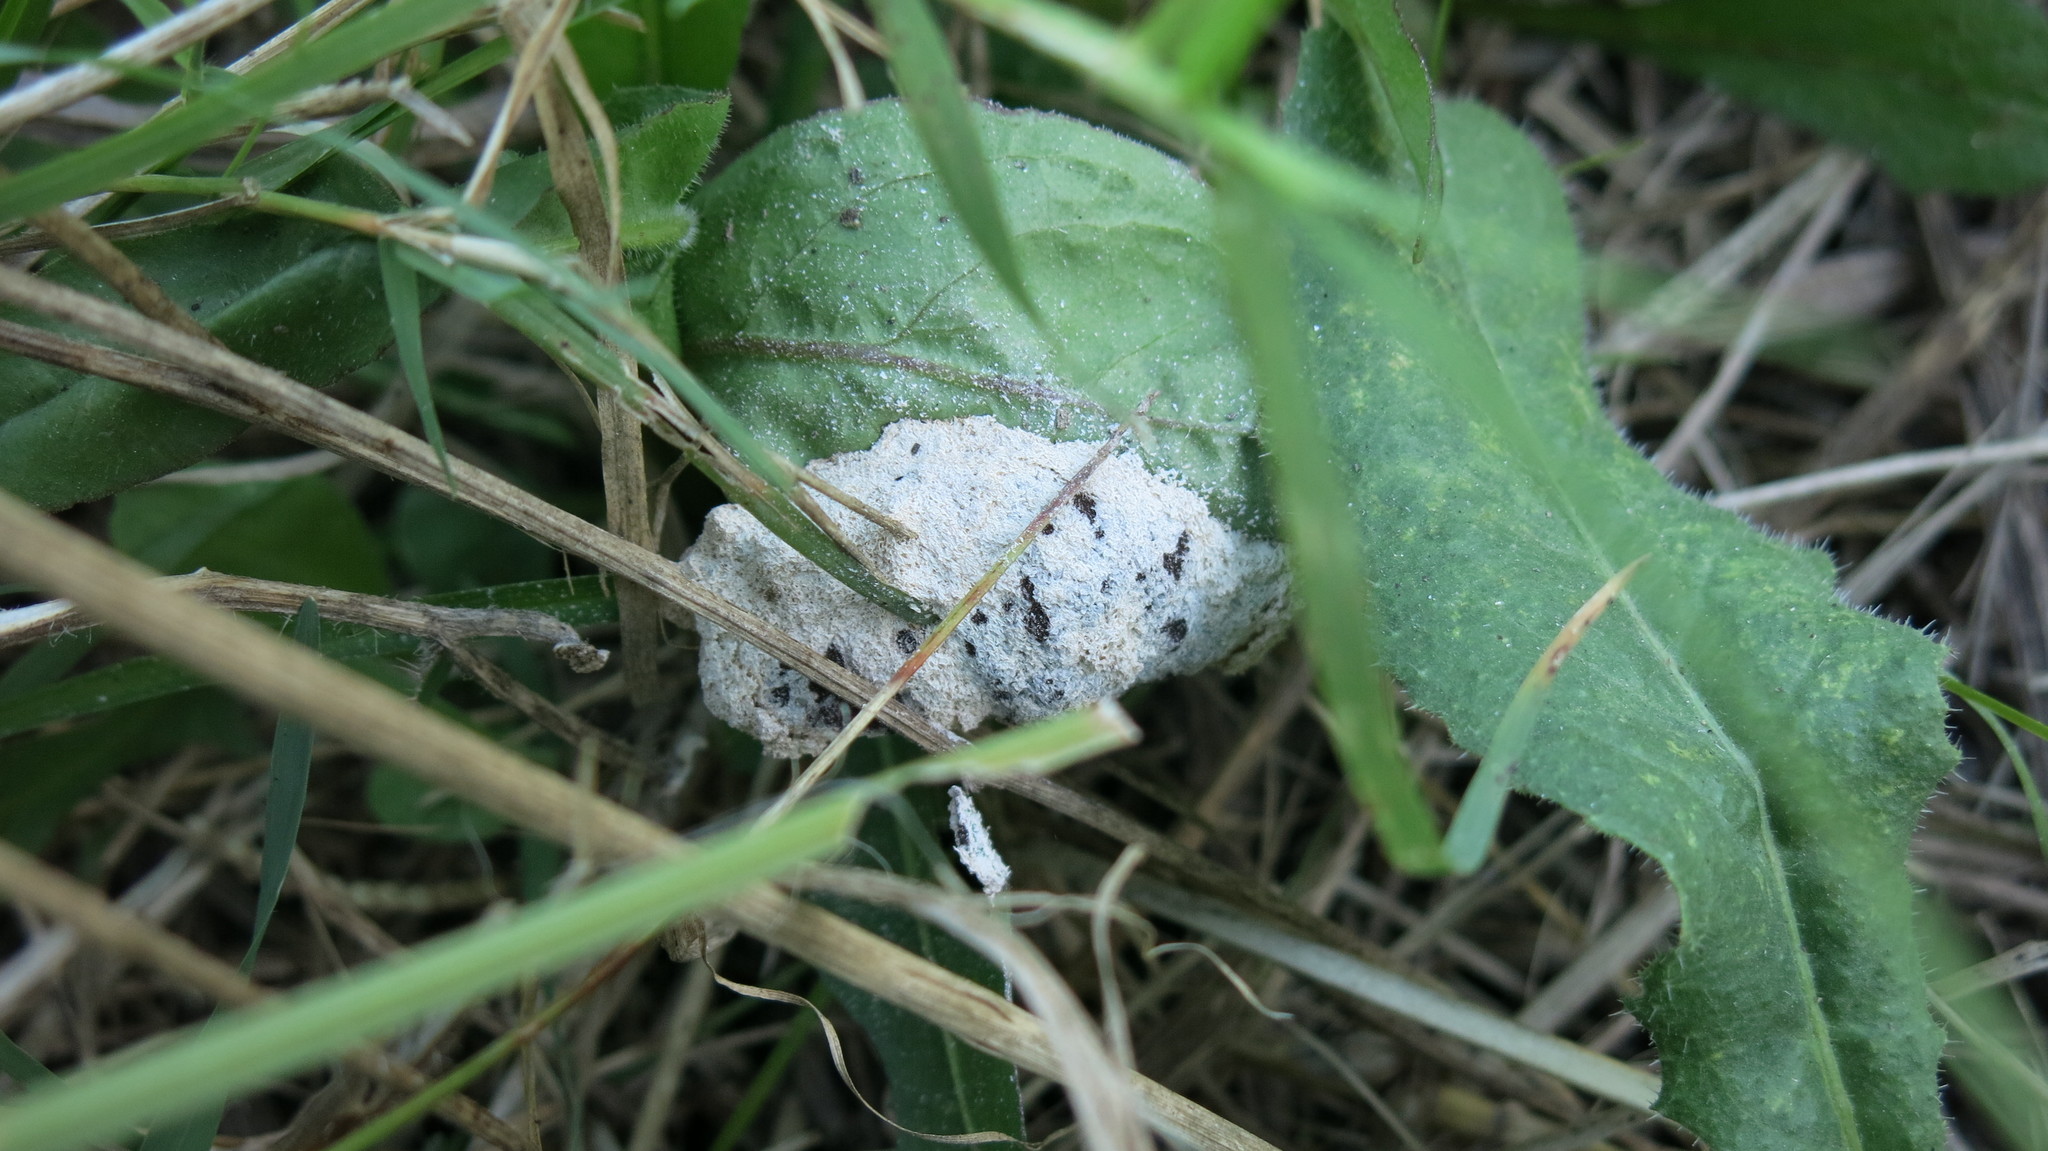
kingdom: Protozoa
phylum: Mycetozoa
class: Myxomycetes
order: Physarales
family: Physaraceae
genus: Didymium
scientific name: Didymium
